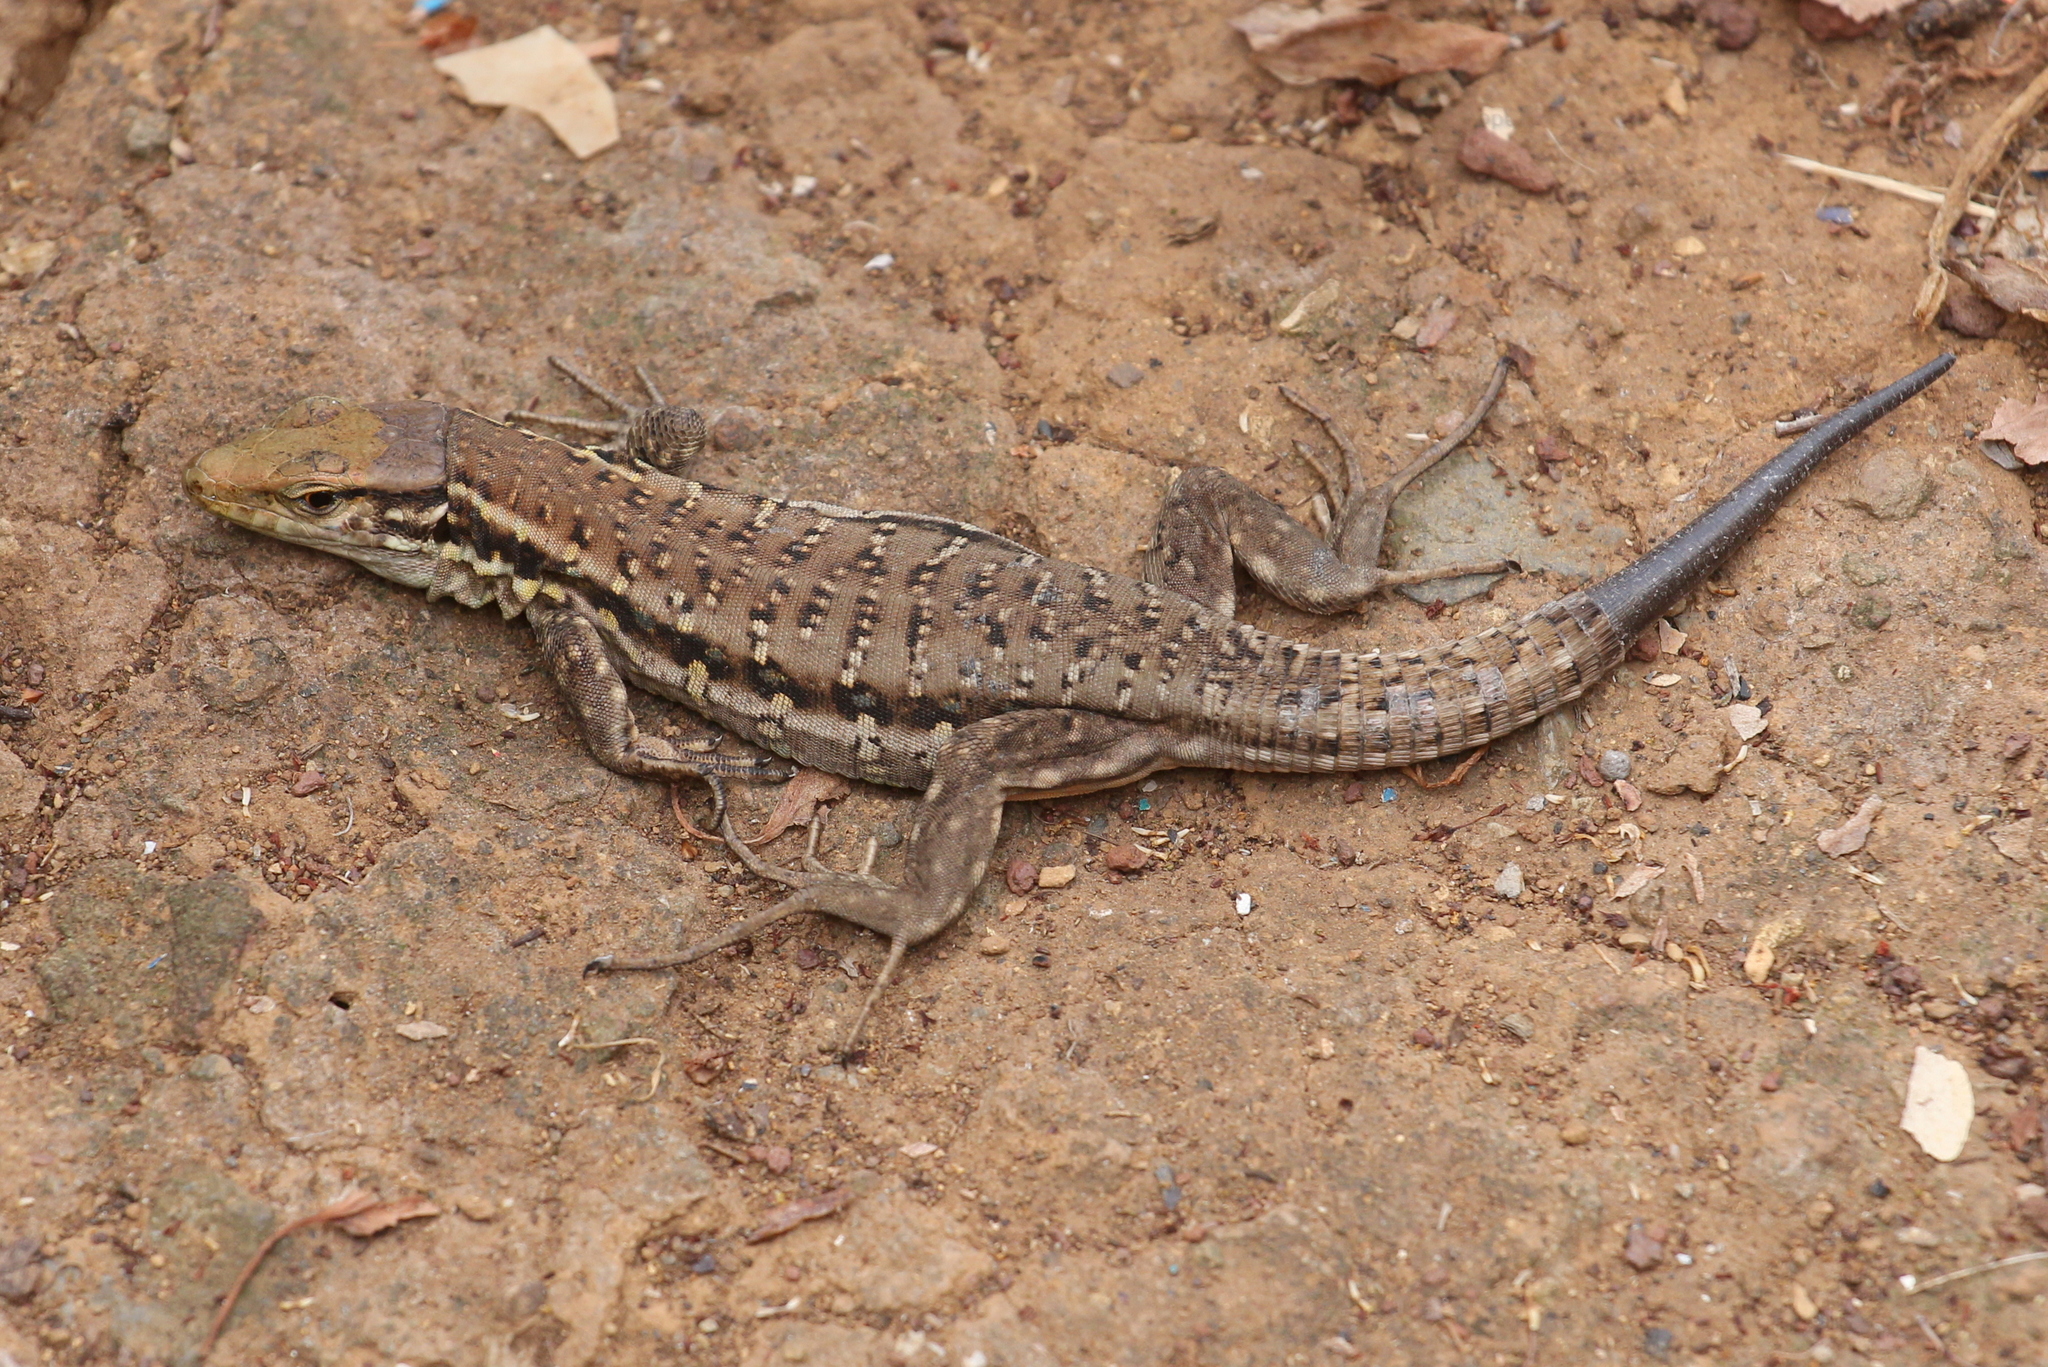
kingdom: Animalia
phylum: Chordata
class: Squamata
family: Lacertidae
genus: Gallotia
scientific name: Gallotia galloti
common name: Gallot's lizard
